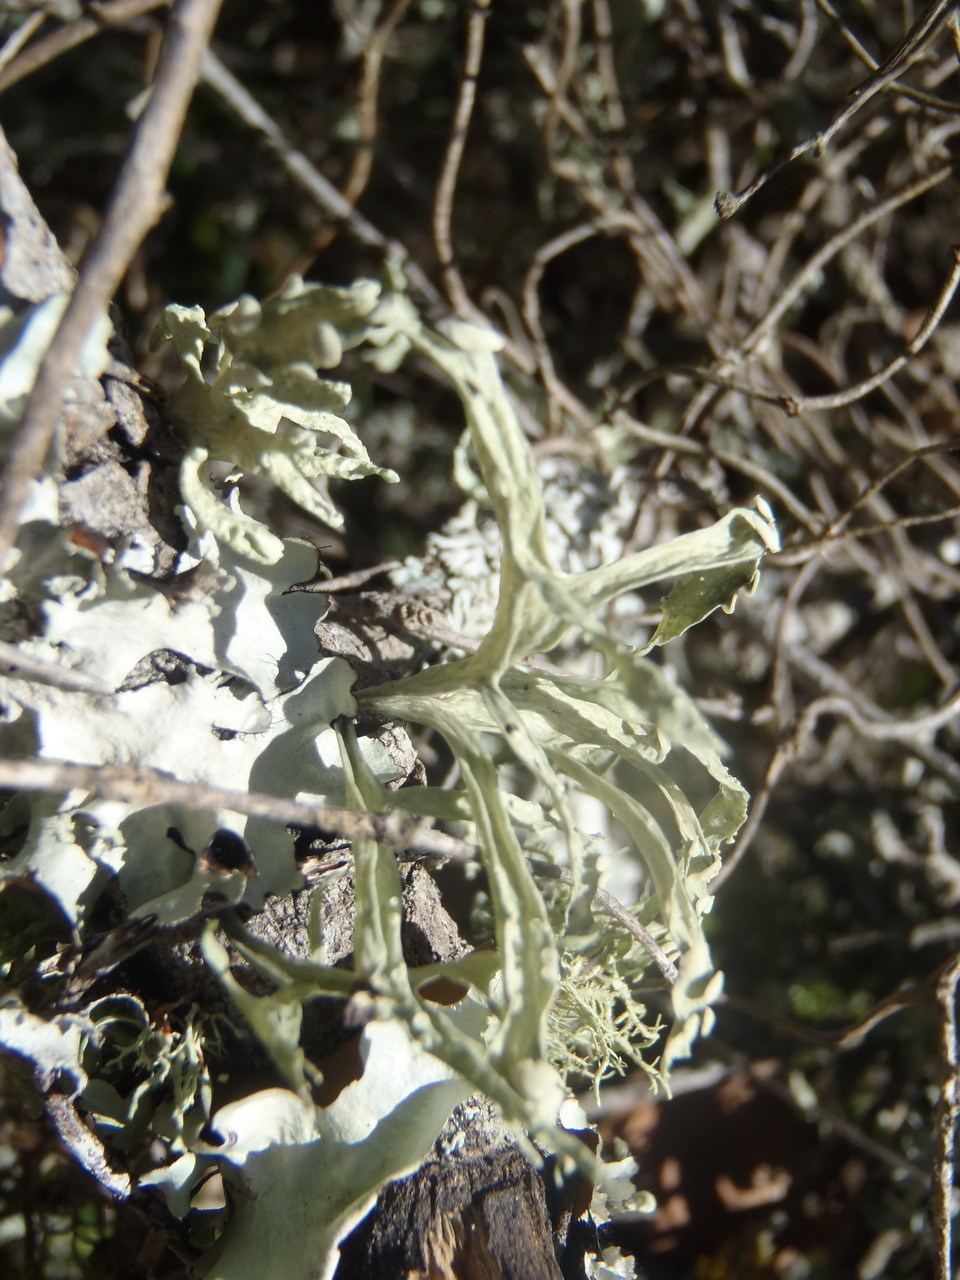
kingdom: Fungi
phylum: Ascomycota
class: Lecanoromycetes
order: Lecanorales
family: Ramalinaceae
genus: Ramalina
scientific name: Ramalina celastri
